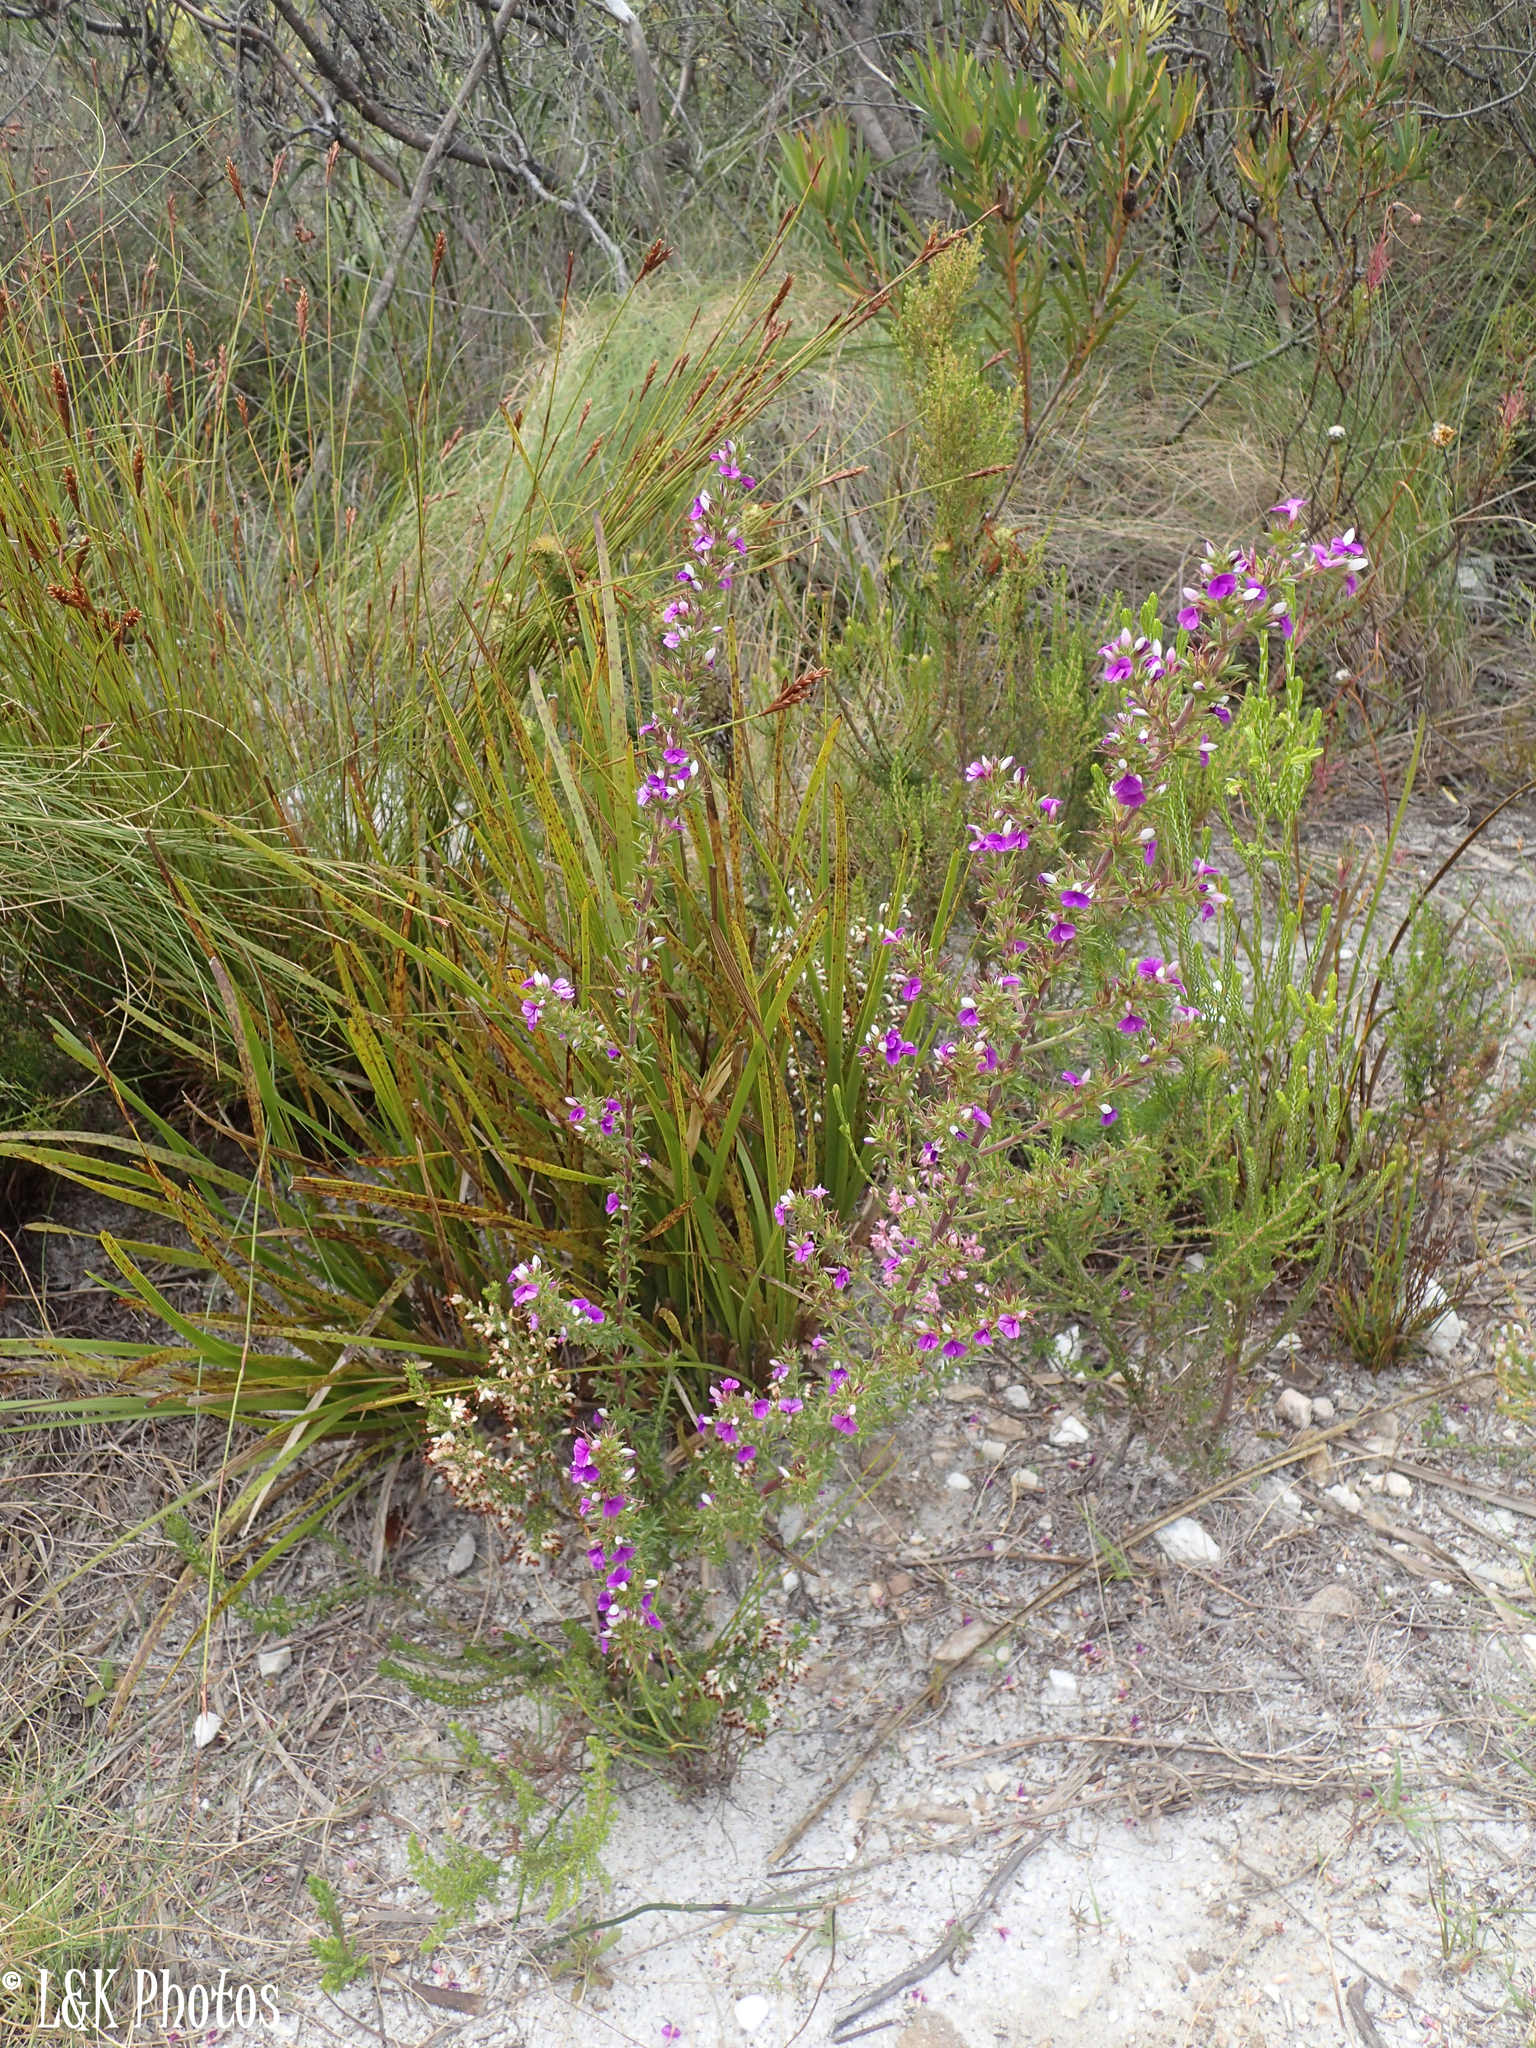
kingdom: Plantae
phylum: Tracheophyta
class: Magnoliopsida
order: Fabales
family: Polygalaceae
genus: Muraltia
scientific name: Muraltia heisteria
